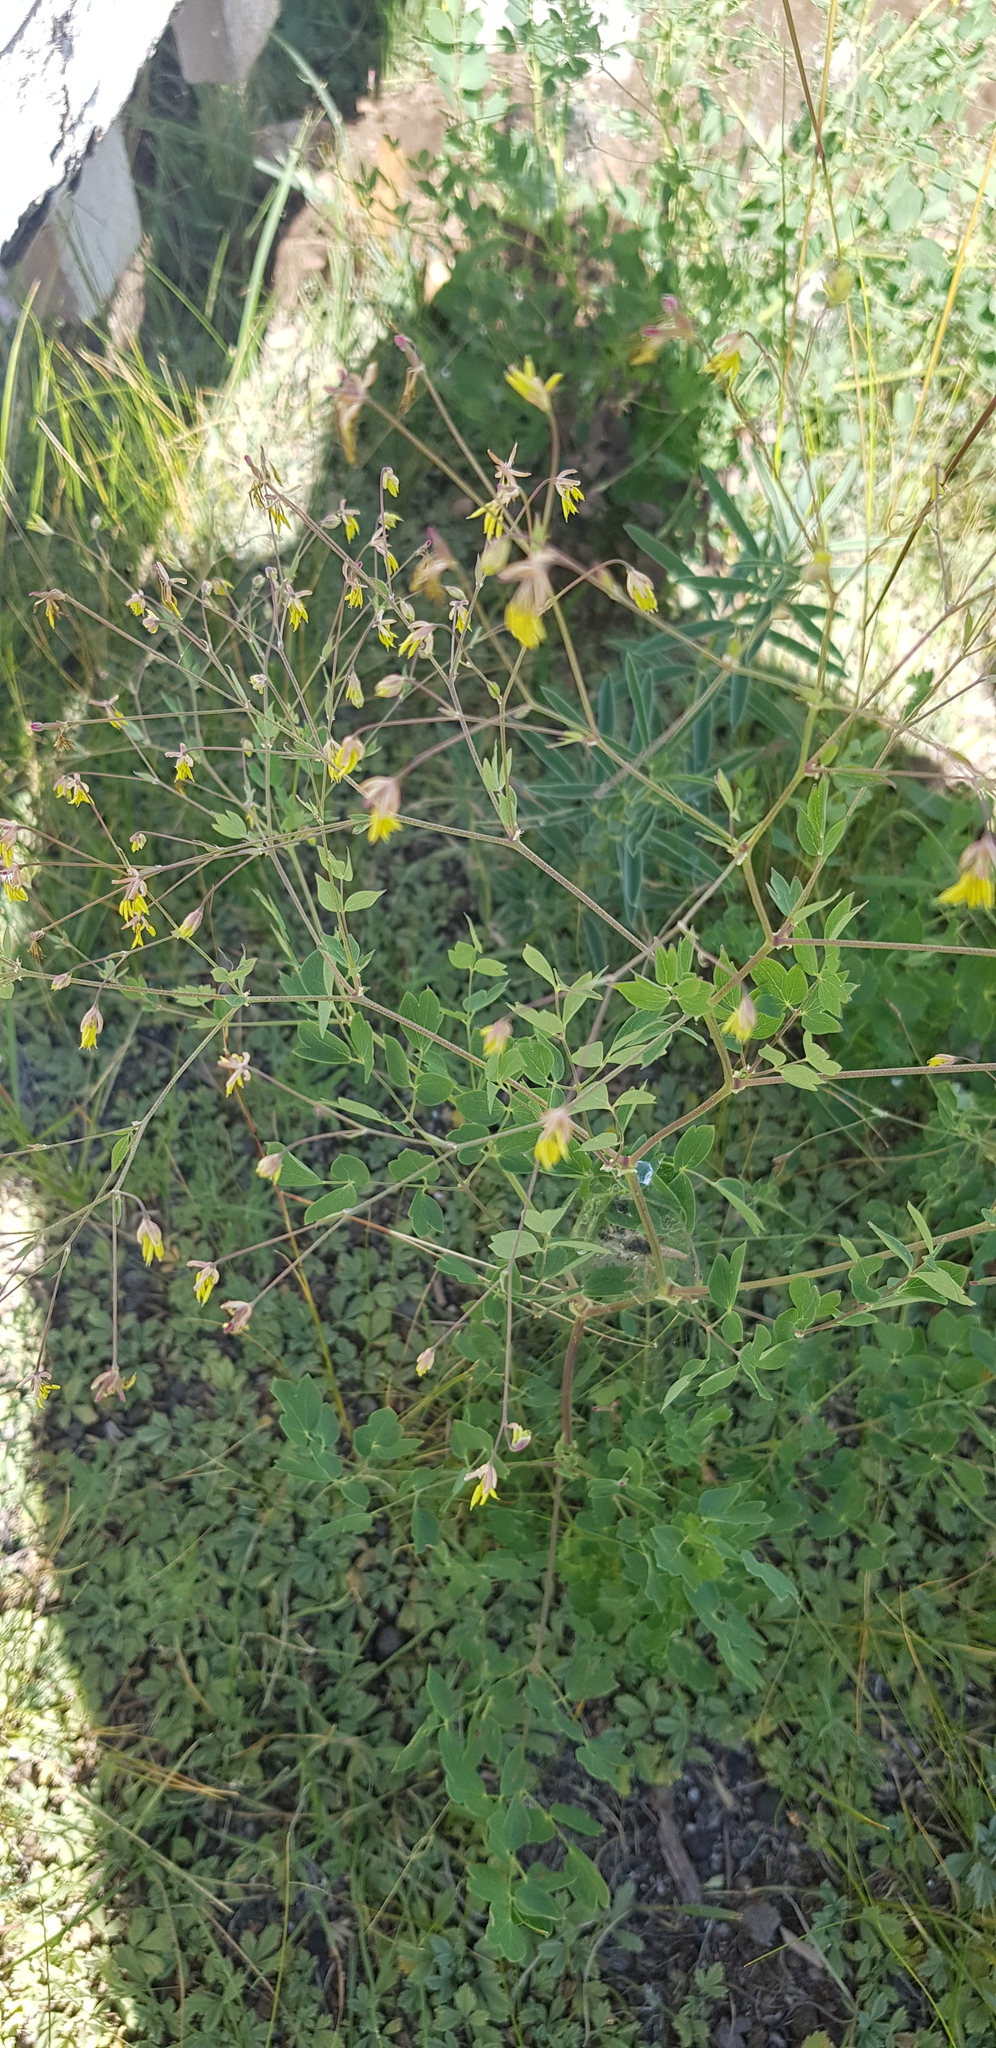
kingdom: Plantae
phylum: Tracheophyta
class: Magnoliopsida
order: Ranunculales
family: Ranunculaceae
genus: Thalictrum
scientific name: Thalictrum foetidum
